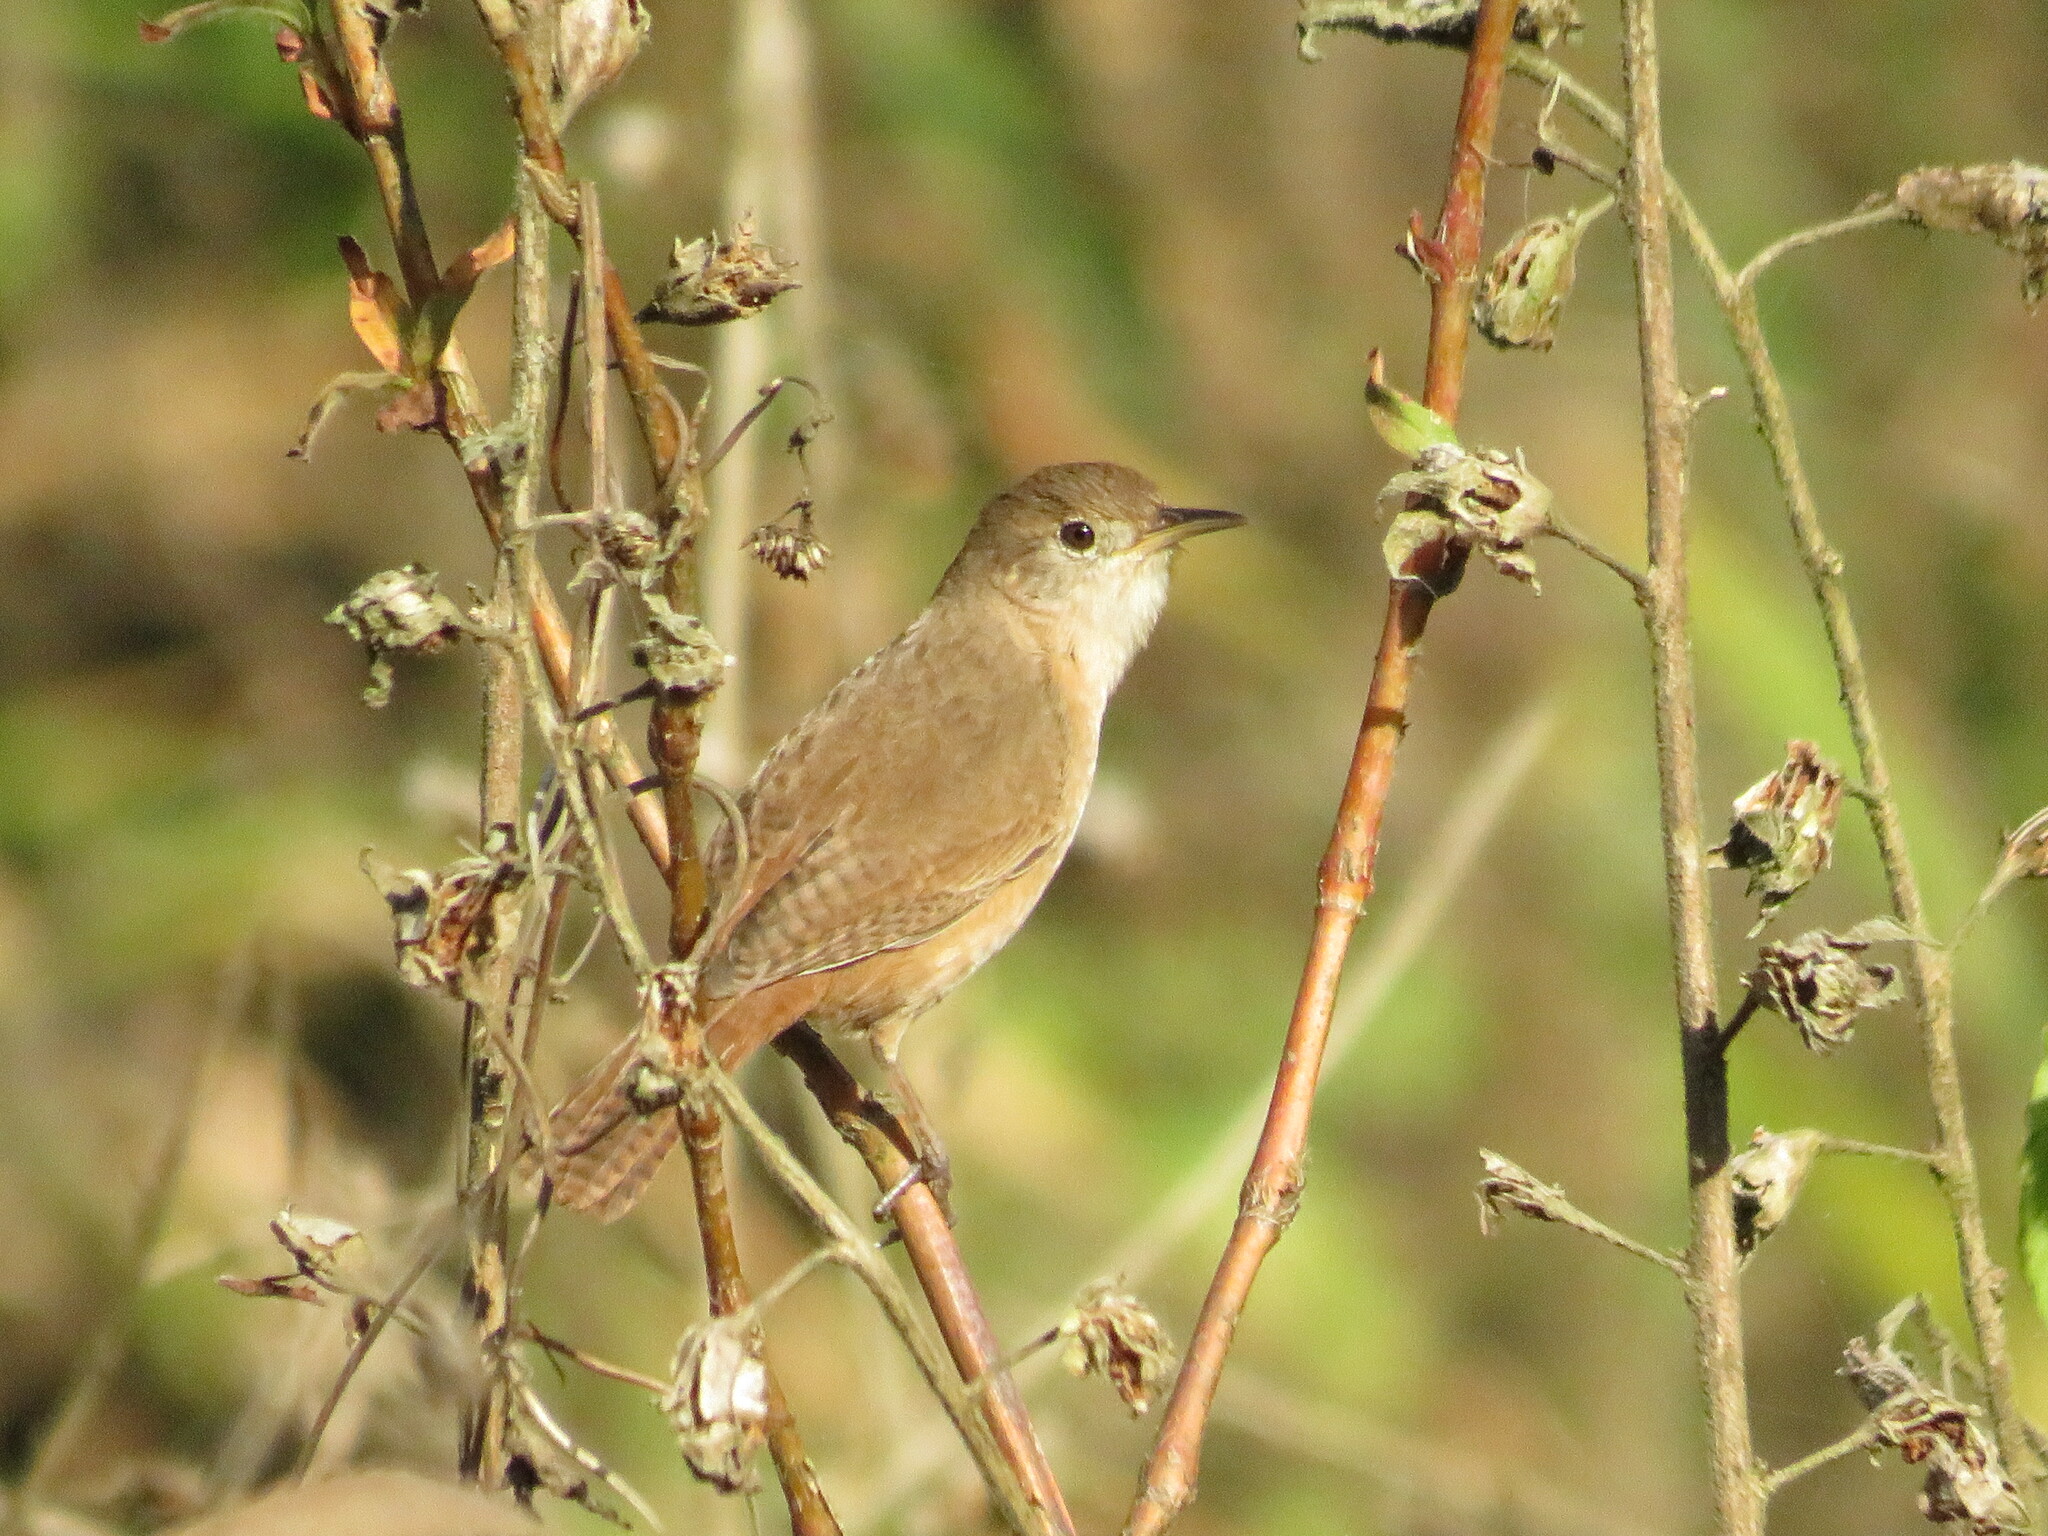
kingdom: Animalia
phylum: Chordata
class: Aves
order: Passeriformes
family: Troglodytidae
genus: Troglodytes
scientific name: Troglodytes aedon
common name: House wren
